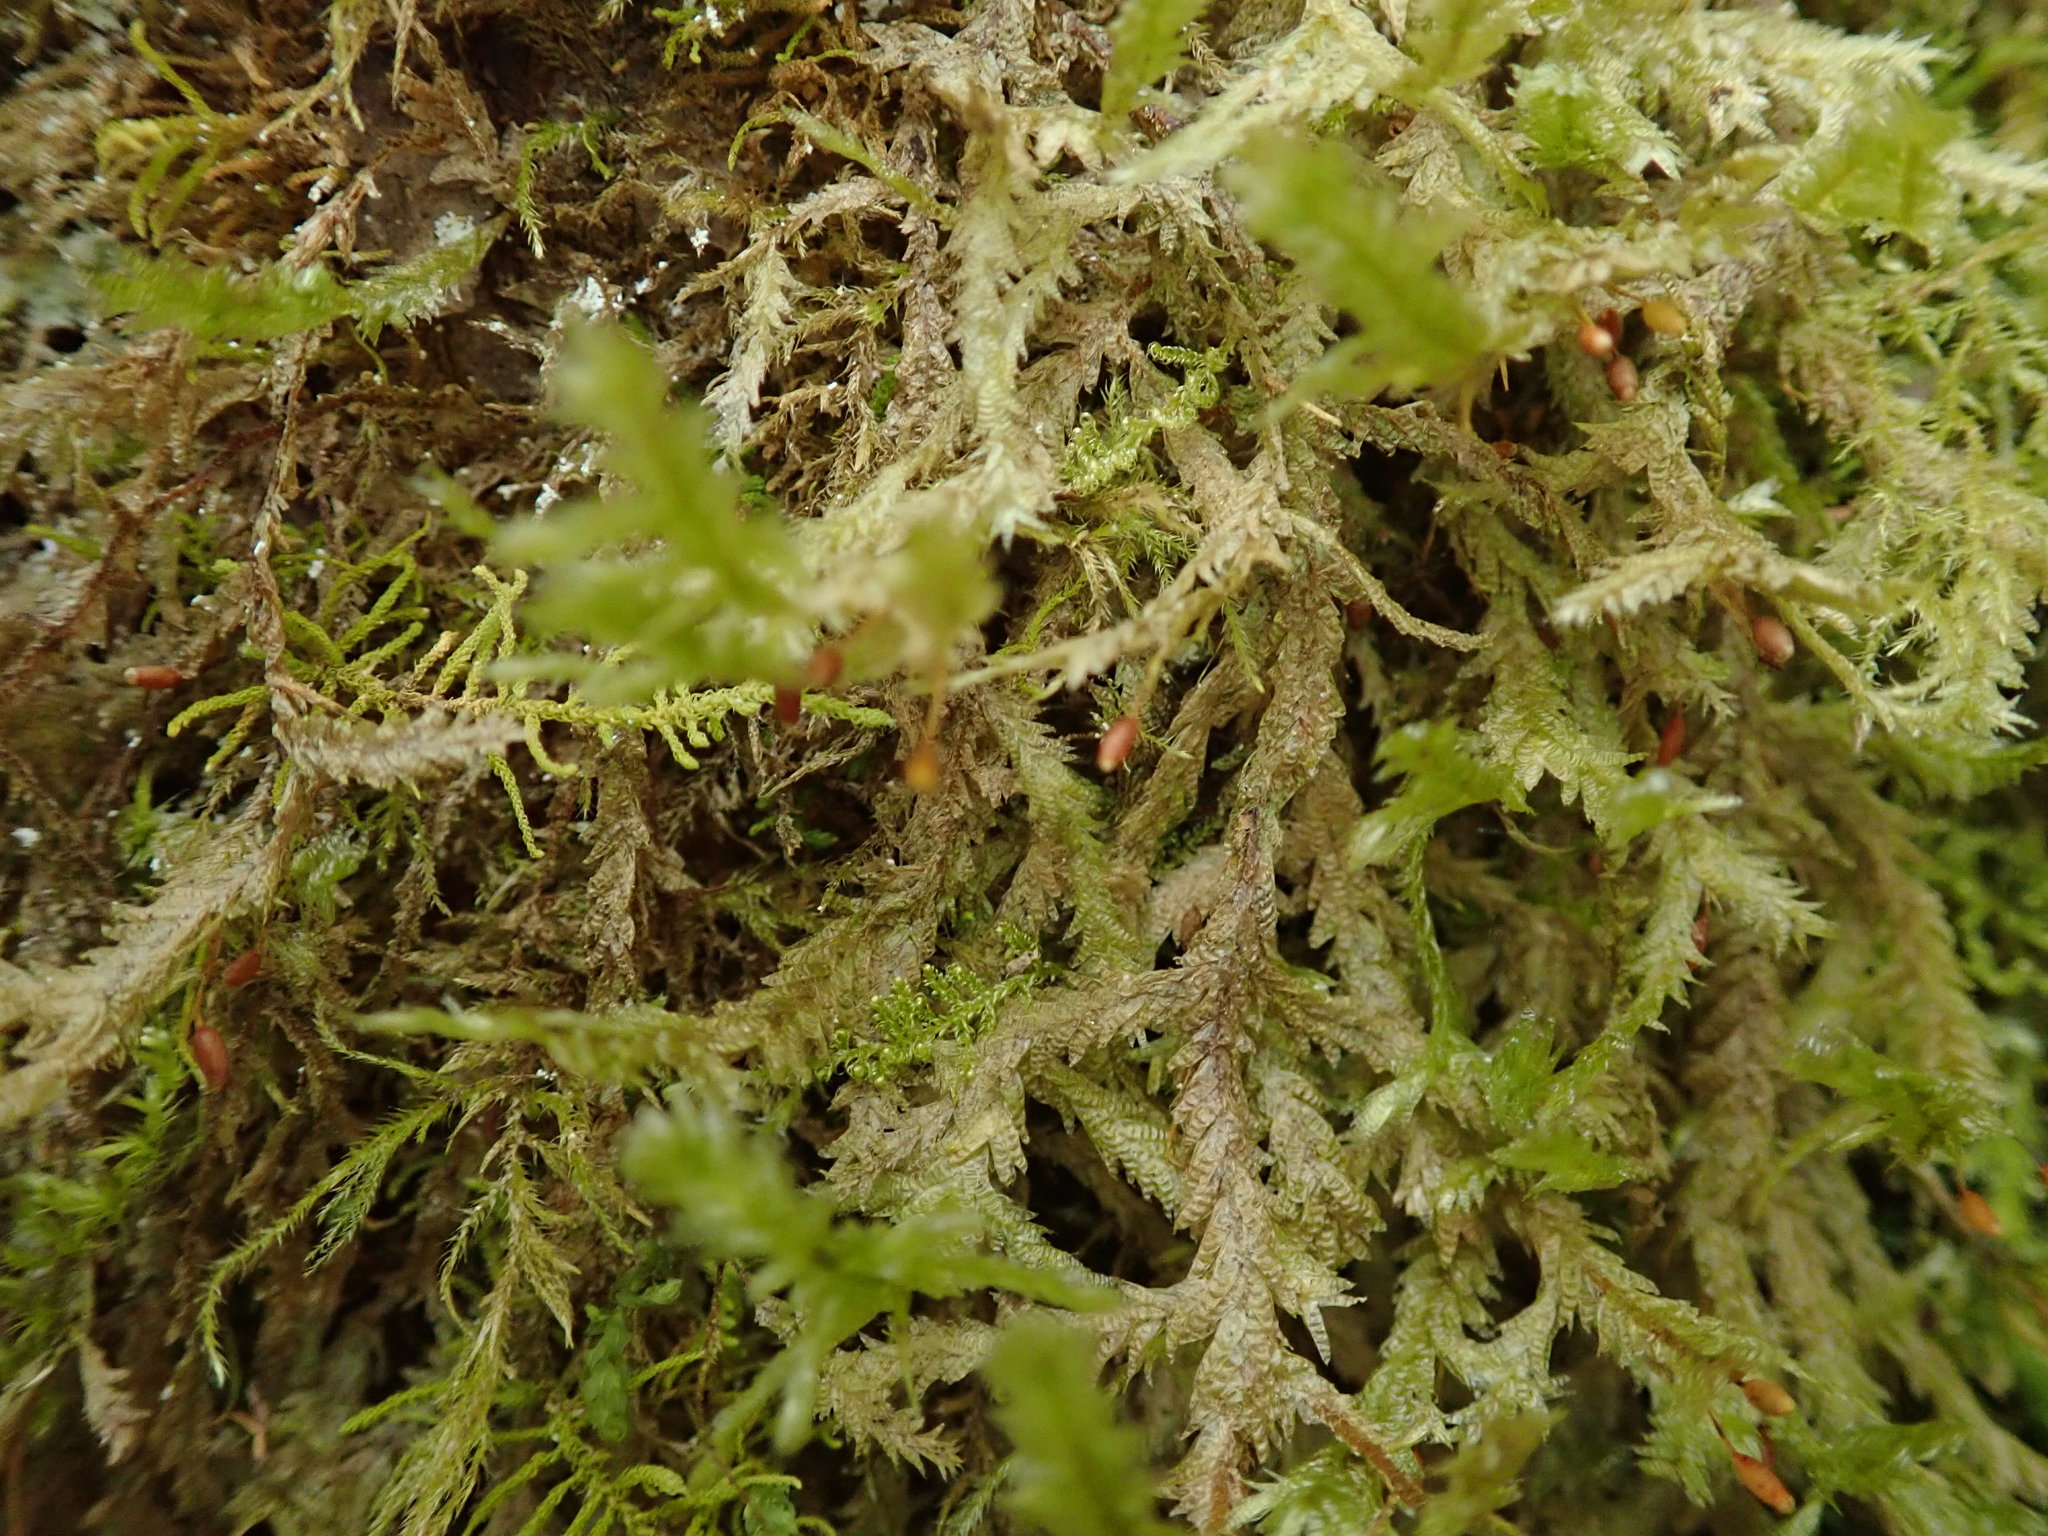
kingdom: Plantae
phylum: Bryophyta
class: Bryopsida
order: Hypnales
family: Neckeraceae
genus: Neckera
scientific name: Neckera douglasii
